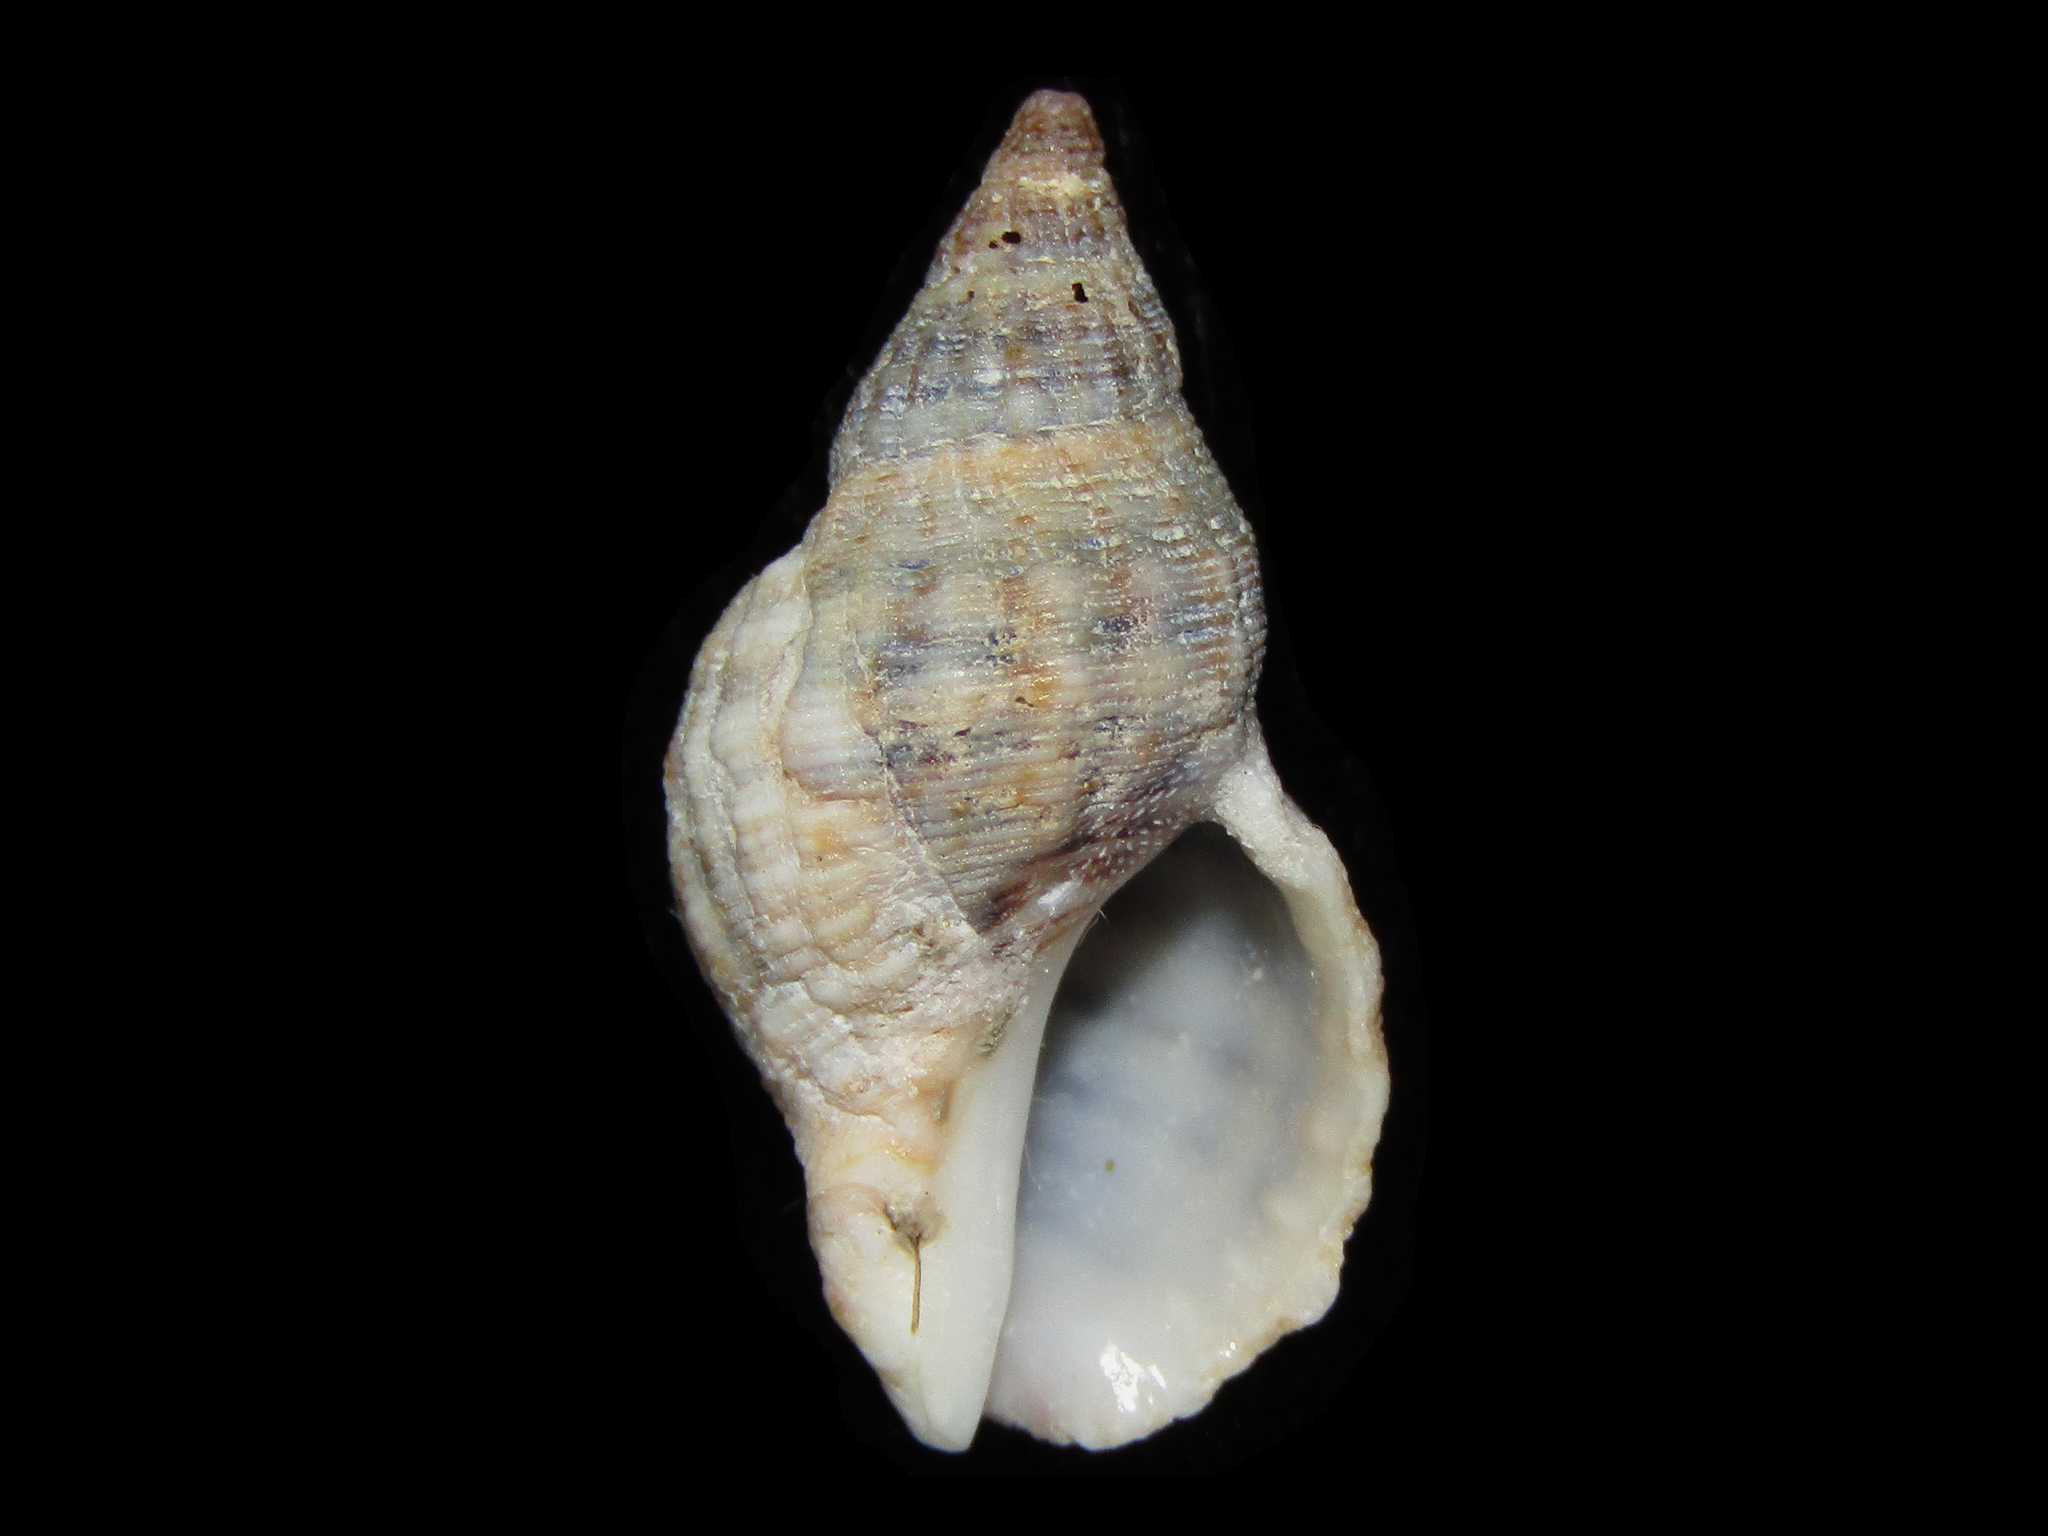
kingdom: Animalia
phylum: Mollusca
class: Gastropoda
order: Neogastropoda
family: Muricidae
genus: Agnewia
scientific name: Agnewia tritoniformis
